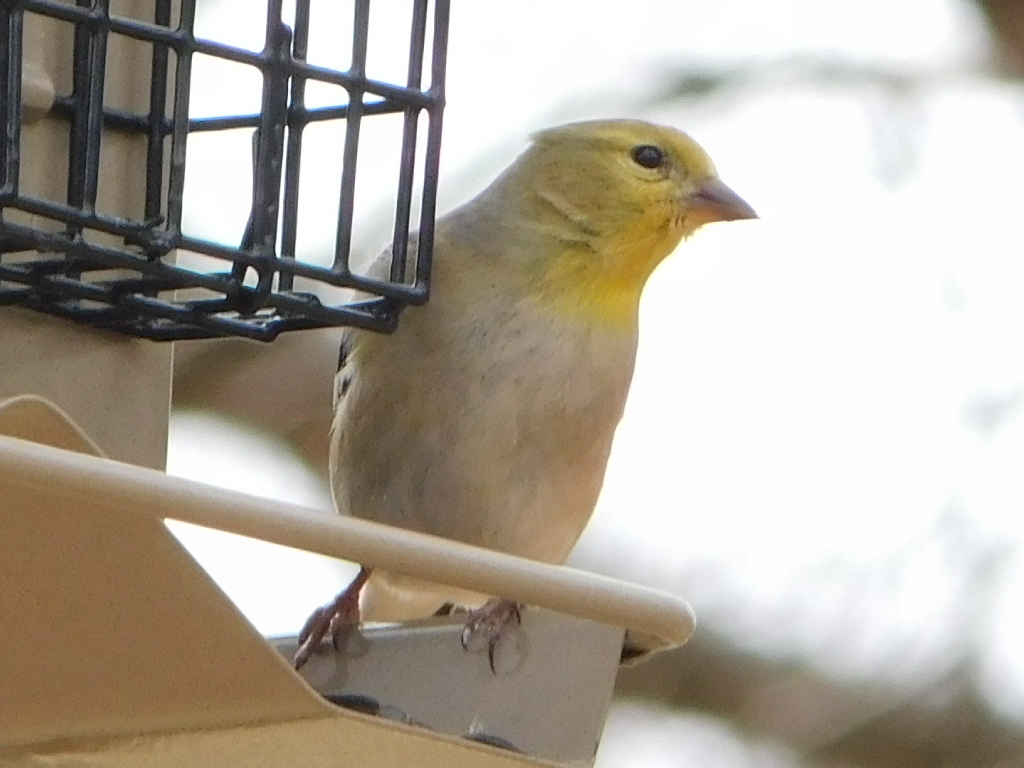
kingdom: Animalia
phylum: Chordata
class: Aves
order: Passeriformes
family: Fringillidae
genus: Spinus
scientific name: Spinus tristis
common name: American goldfinch
